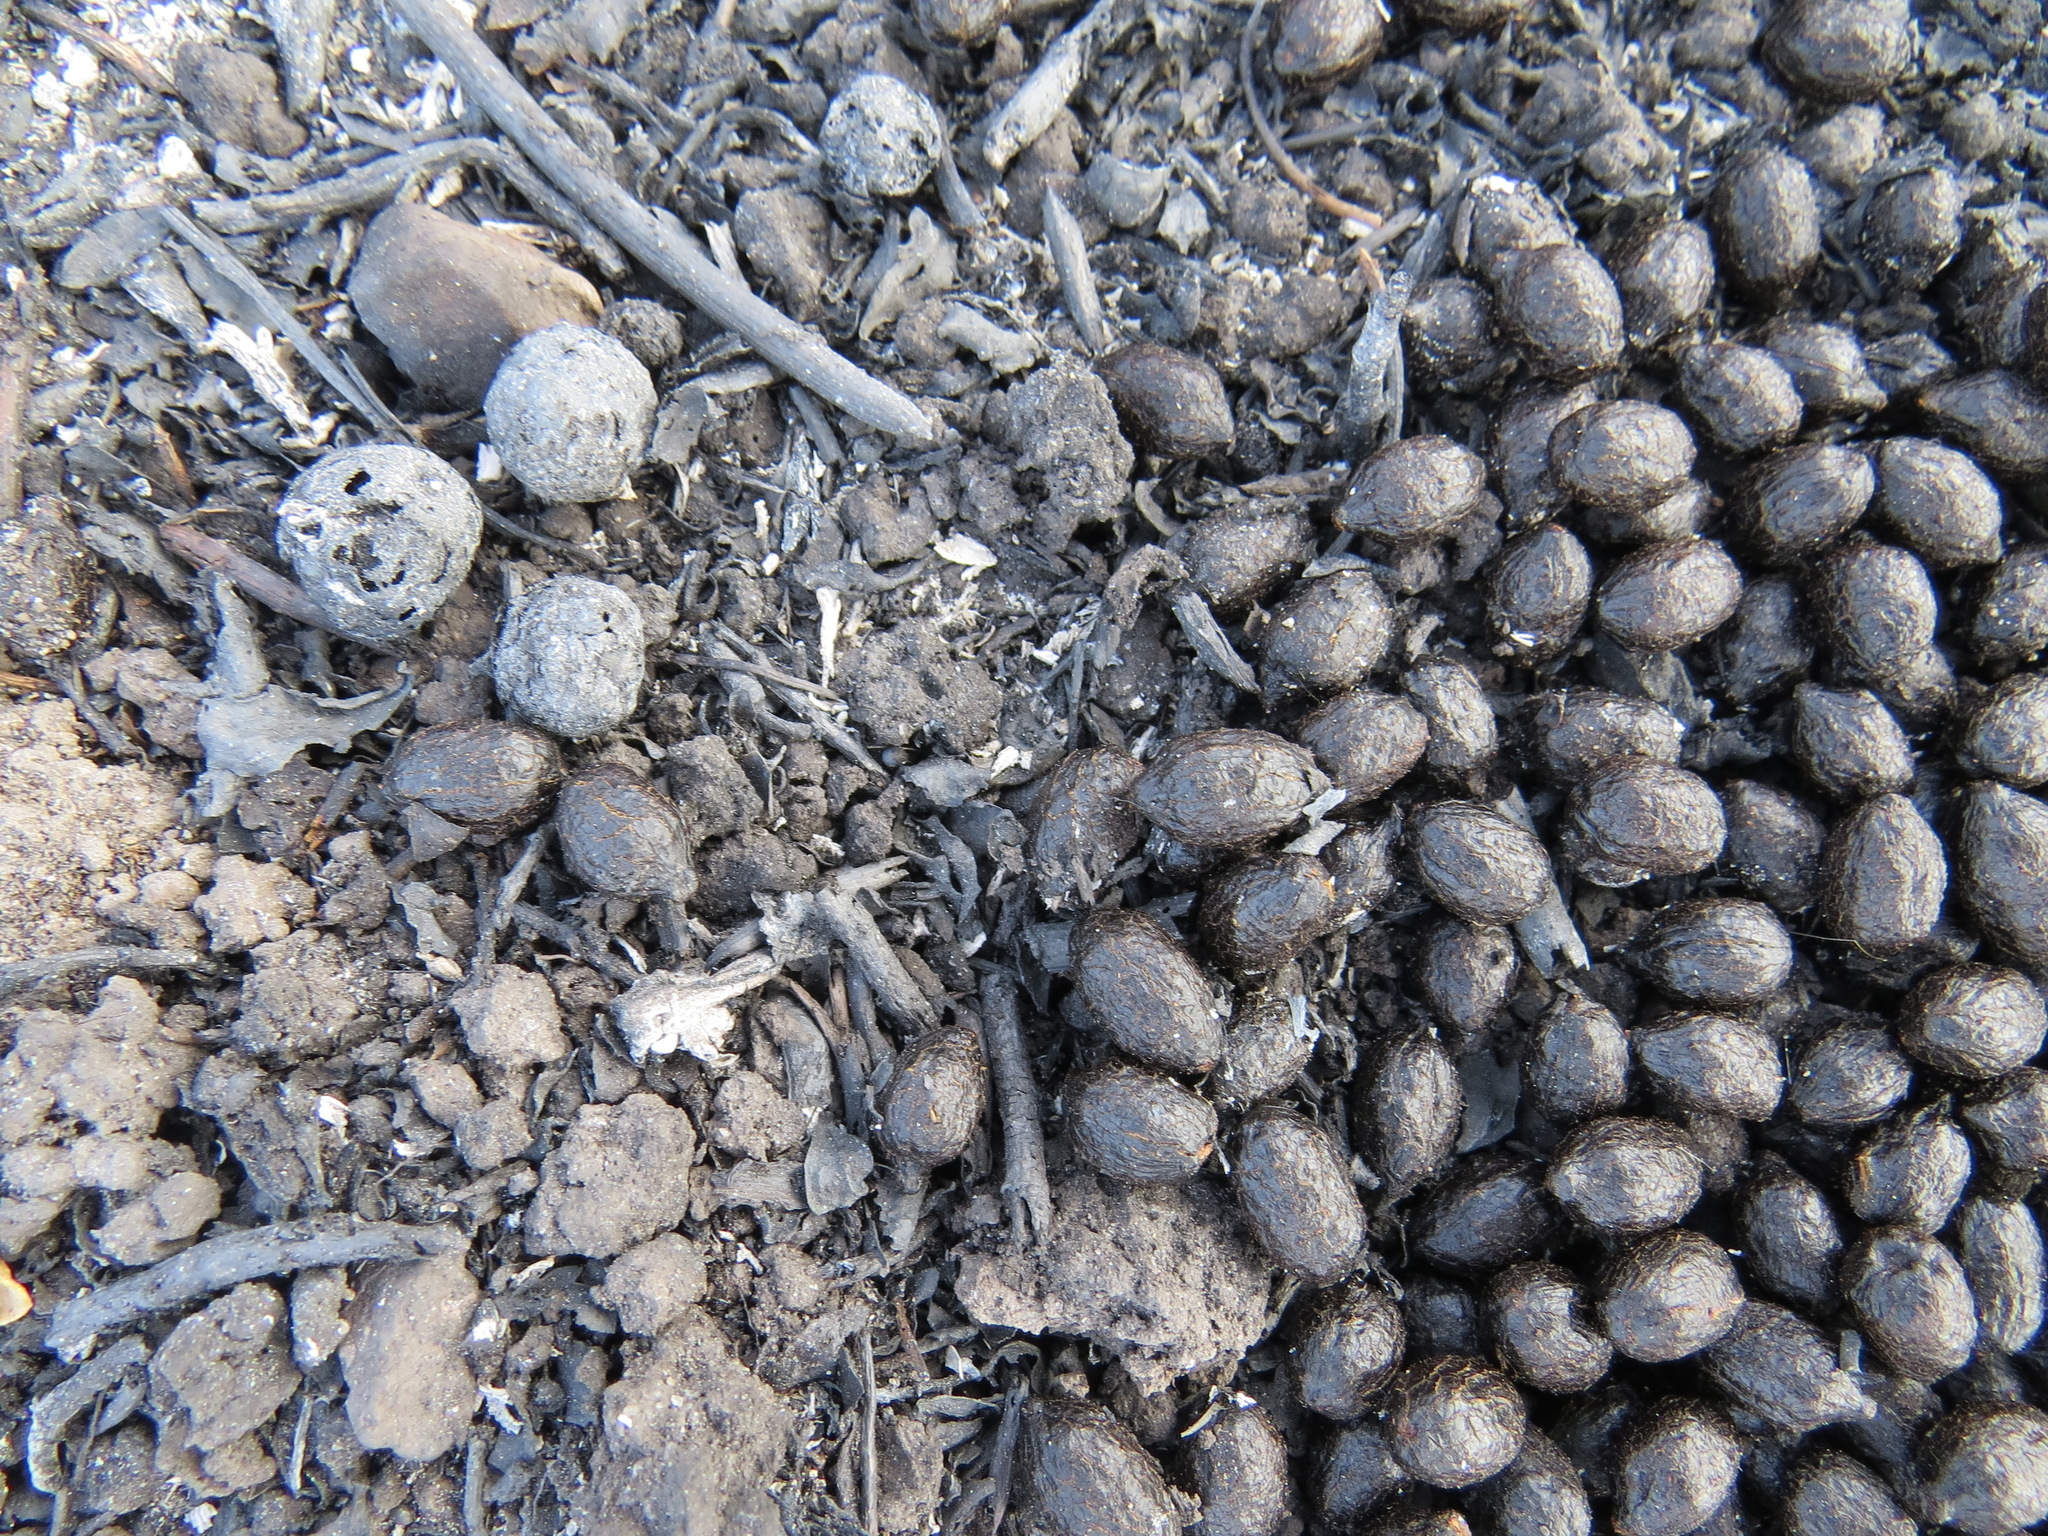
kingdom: Animalia
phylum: Chordata
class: Mammalia
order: Artiodactyla
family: Cervidae
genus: Odocoileus
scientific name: Odocoileus hemionus
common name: Mule deer
